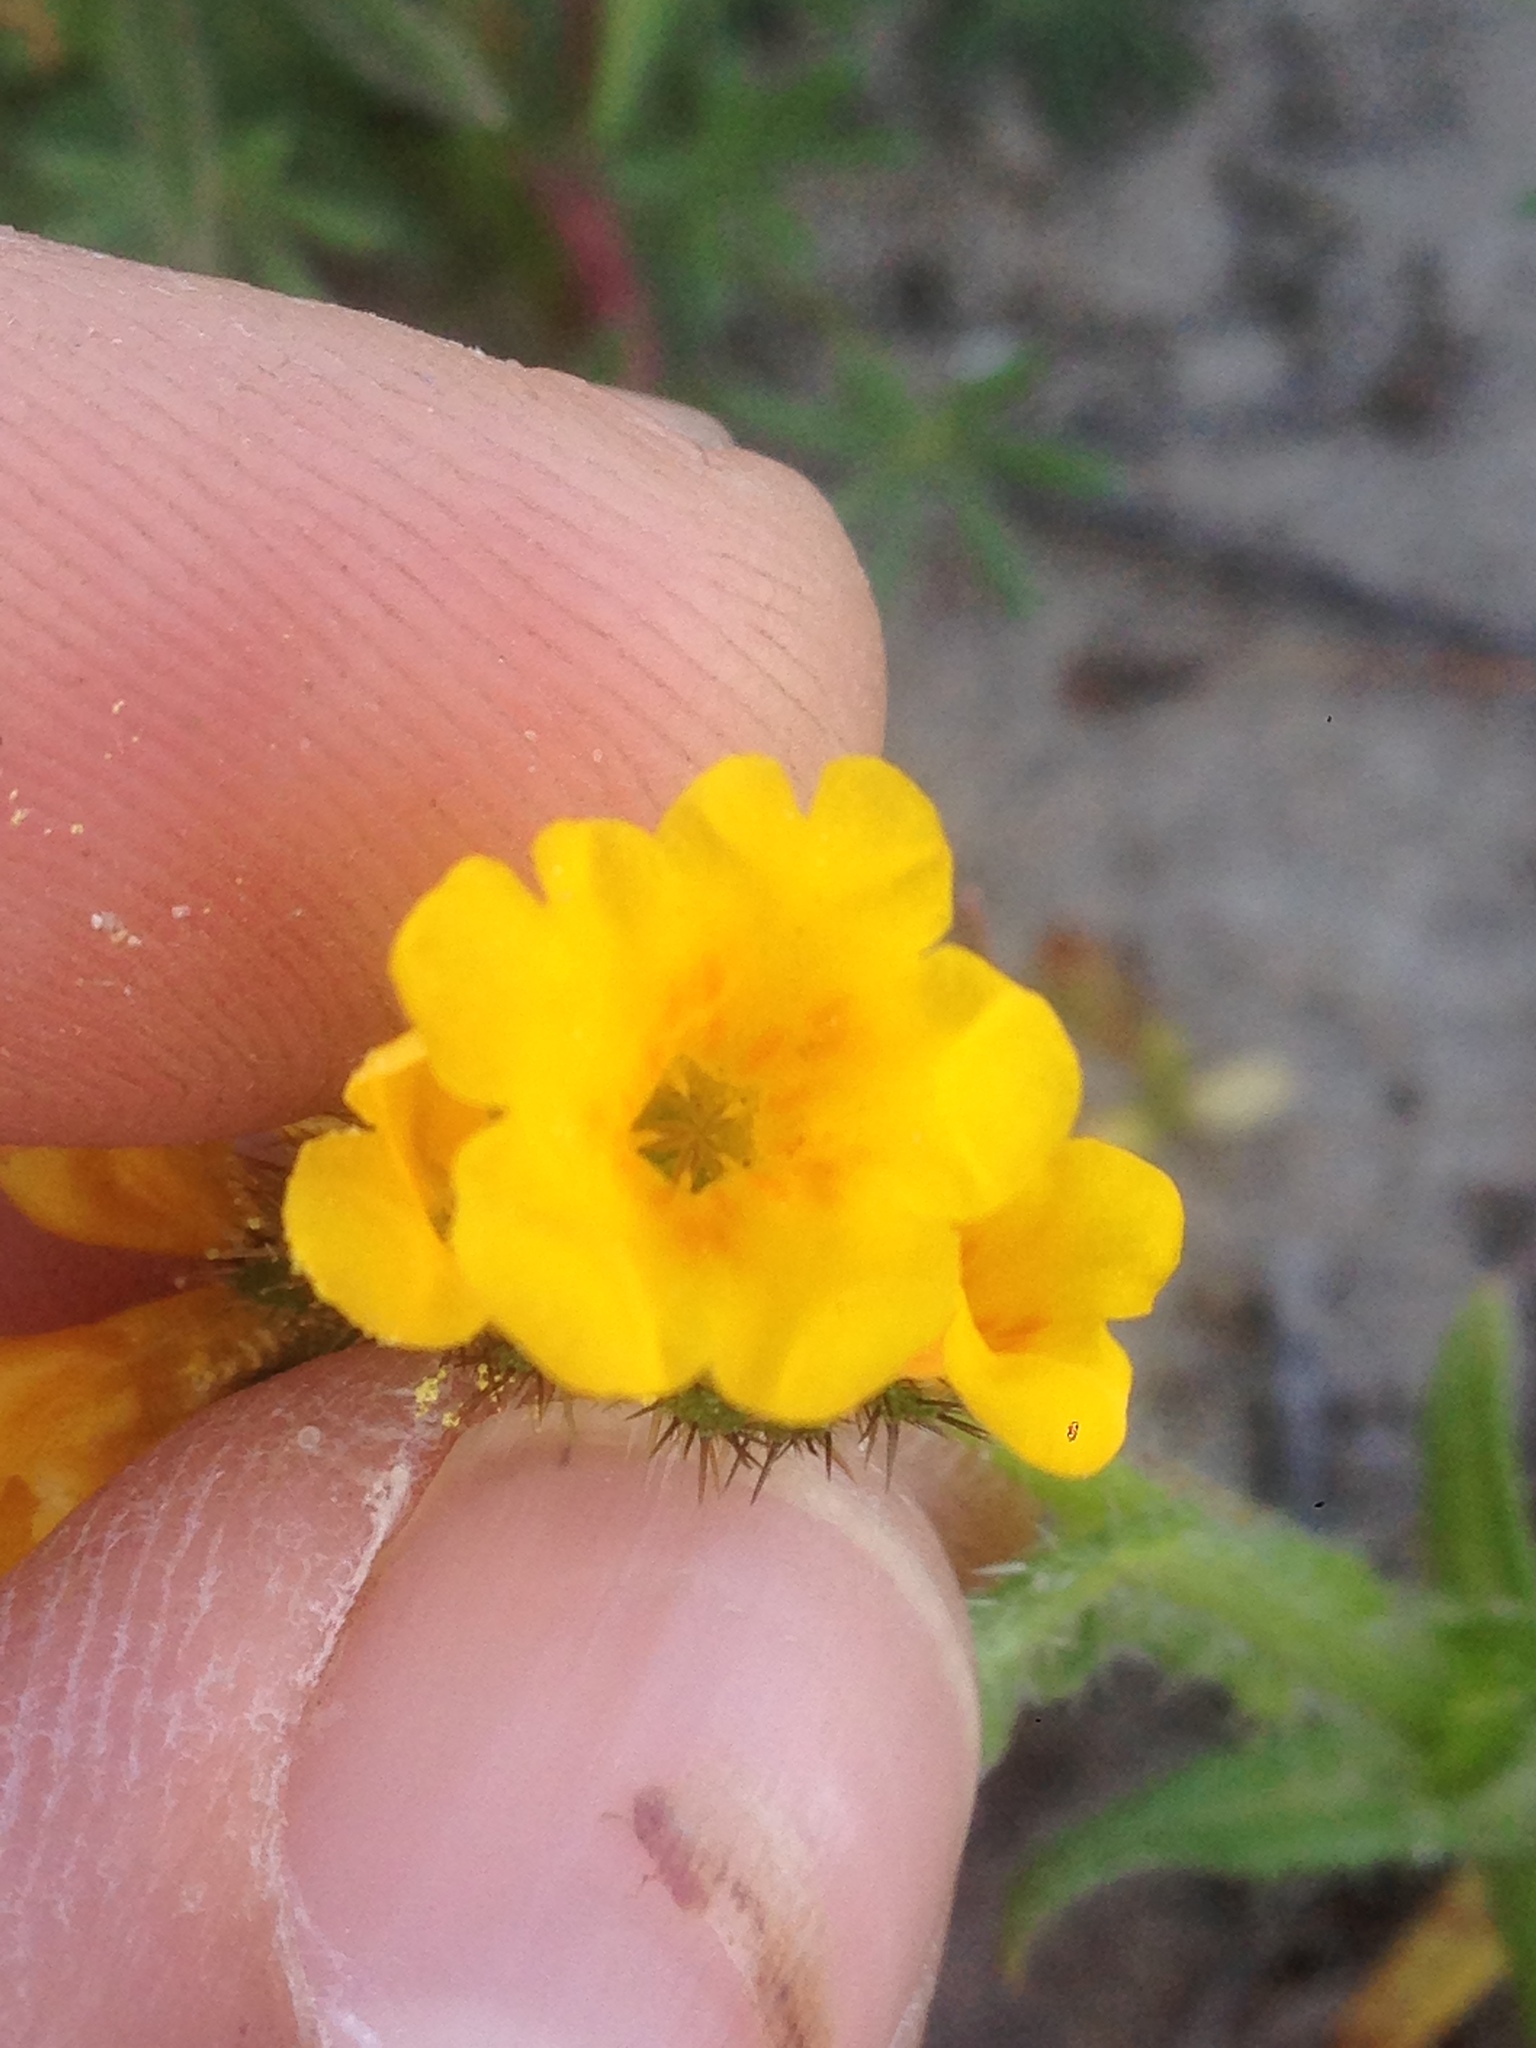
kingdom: Plantae
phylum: Tracheophyta
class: Magnoliopsida
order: Boraginales
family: Boraginaceae
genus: Amsinckia
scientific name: Amsinckia menziesii
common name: Menzies' fiddleneck
